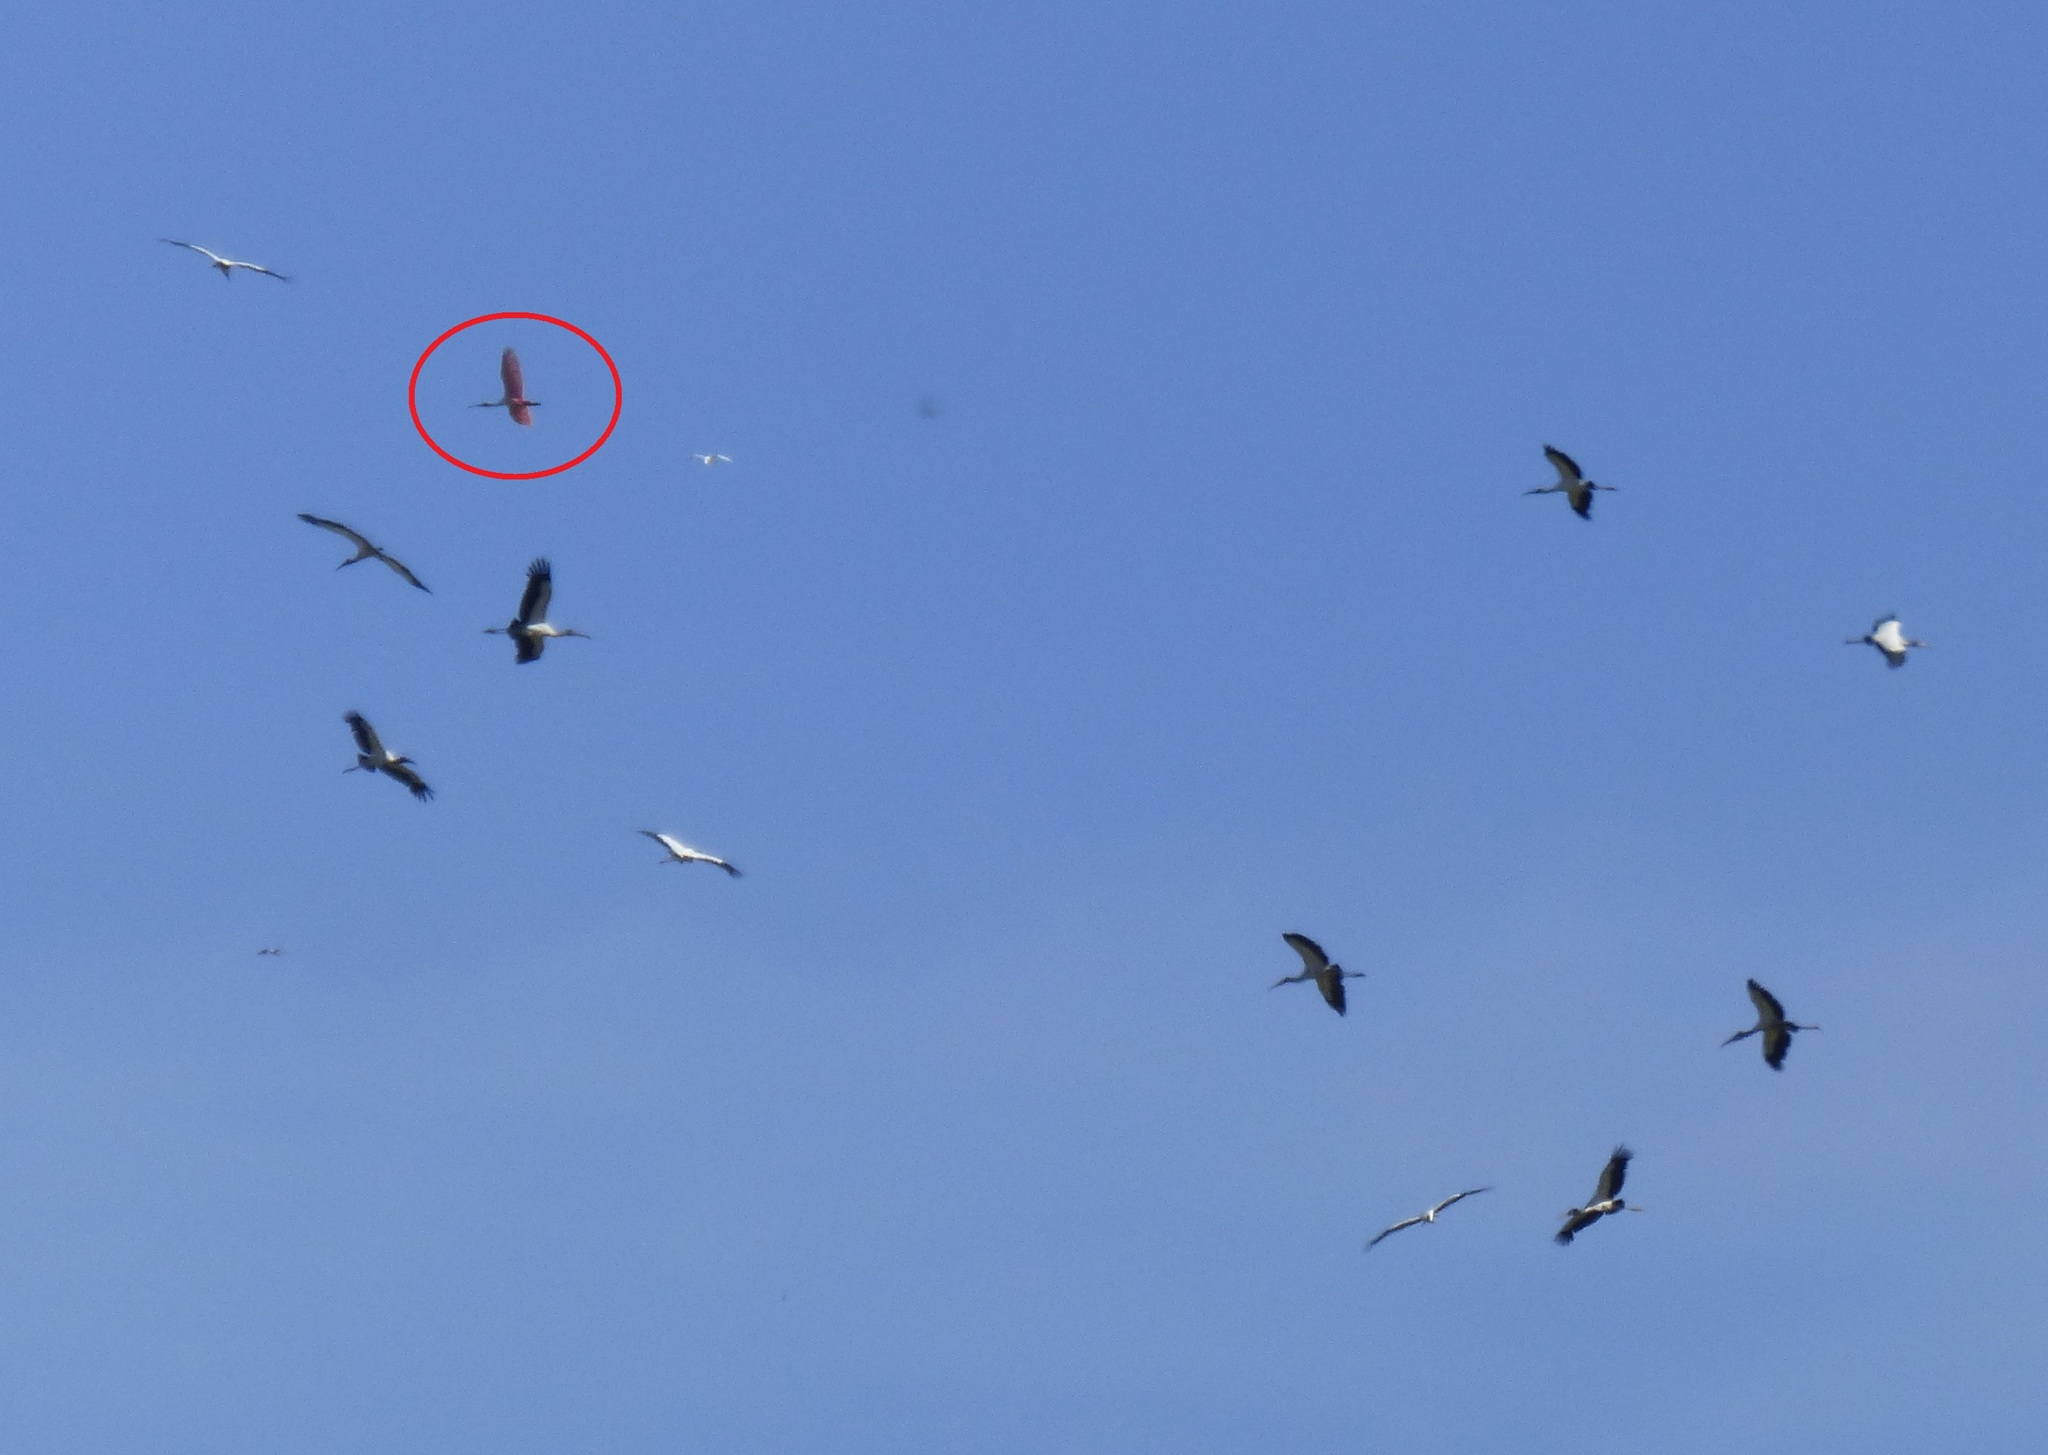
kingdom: Animalia
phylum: Chordata
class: Aves
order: Pelecaniformes
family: Threskiornithidae
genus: Platalea
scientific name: Platalea ajaja
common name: Roseate spoonbill
